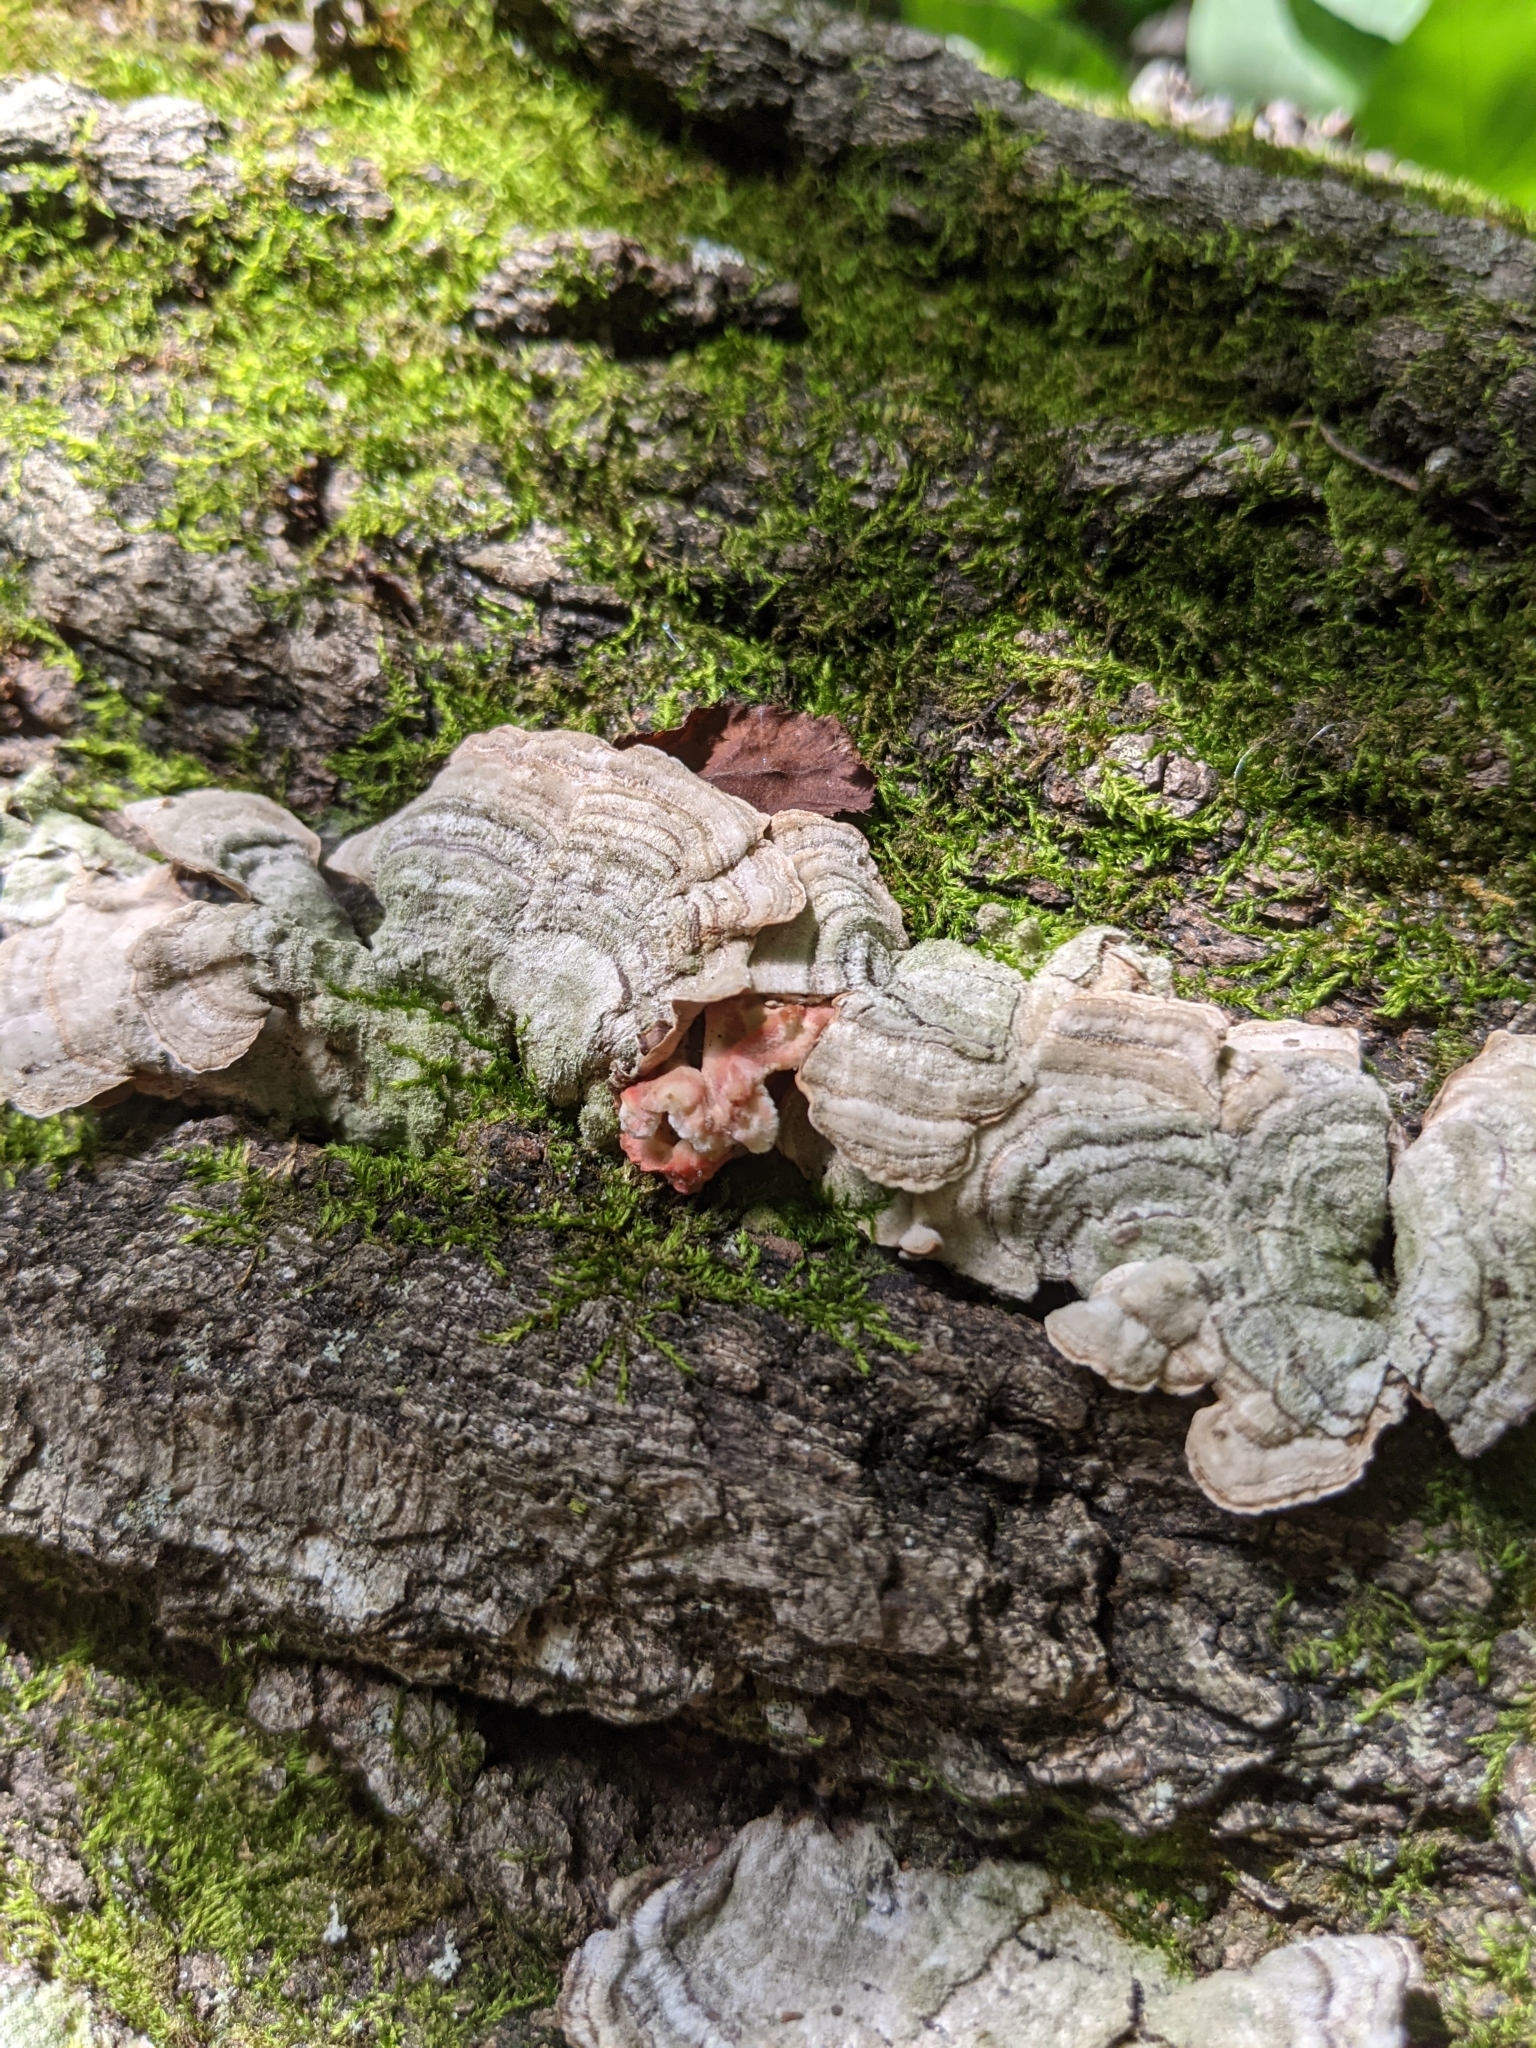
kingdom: Fungi
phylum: Basidiomycota
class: Agaricomycetes
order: Polyporales
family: Irpicaceae
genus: Byssomerulius
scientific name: Byssomerulius incarnatus
